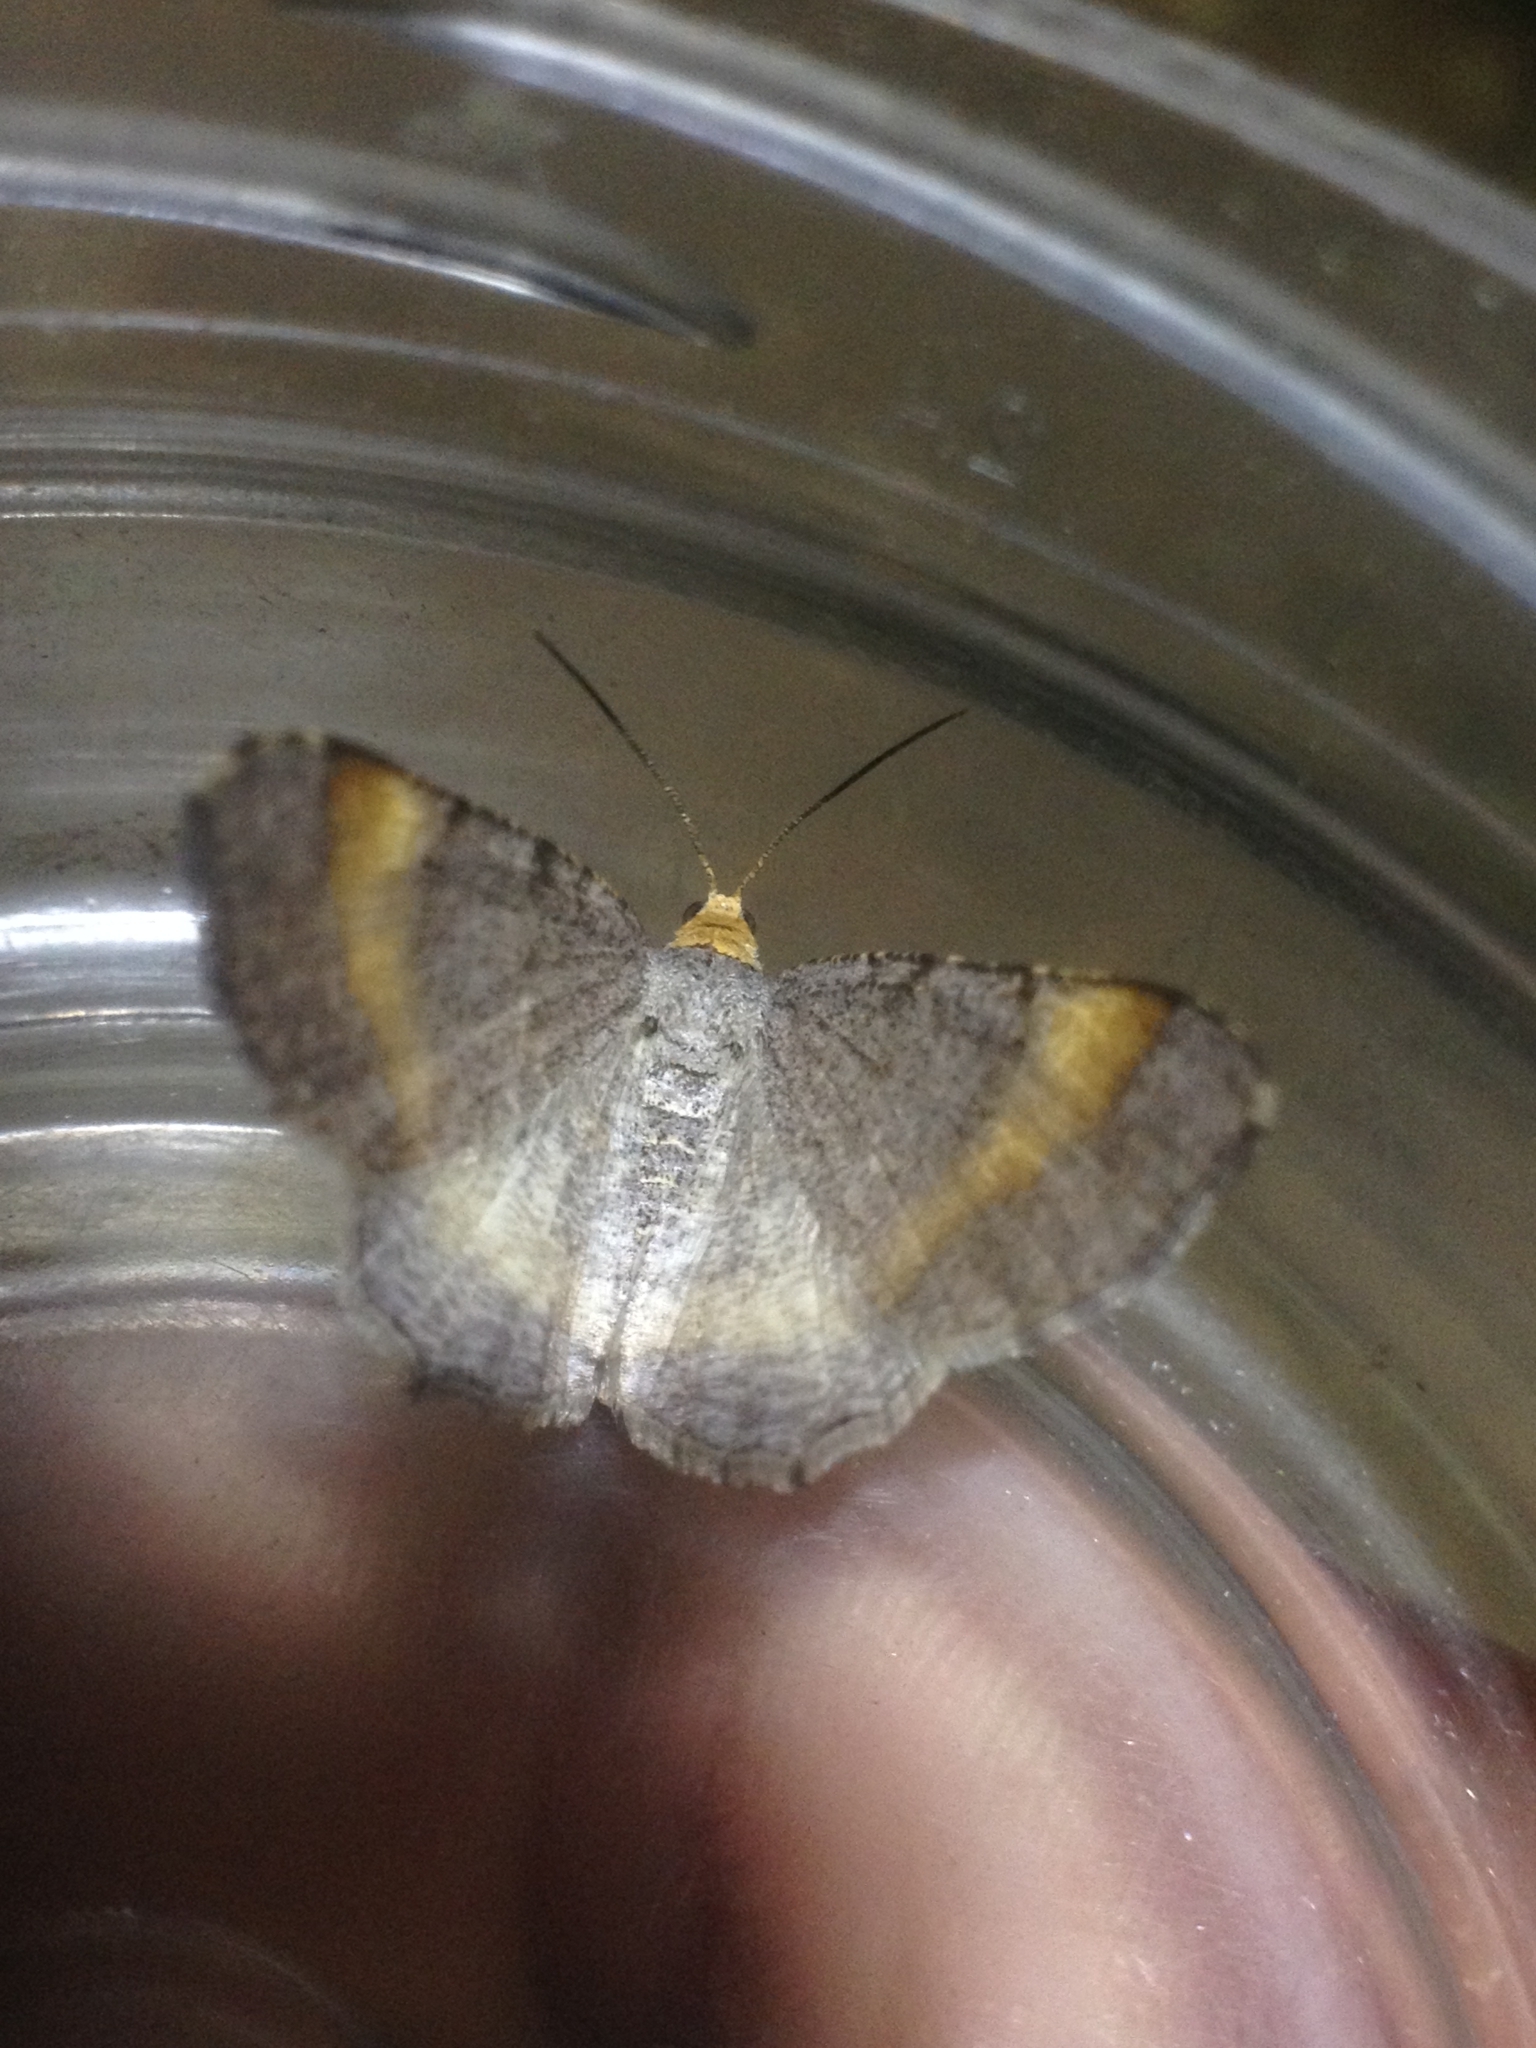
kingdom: Animalia
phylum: Arthropoda
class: Insecta
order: Lepidoptera
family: Geometridae
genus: Macaria
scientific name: Macaria liturata
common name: Tawny-barred angle
